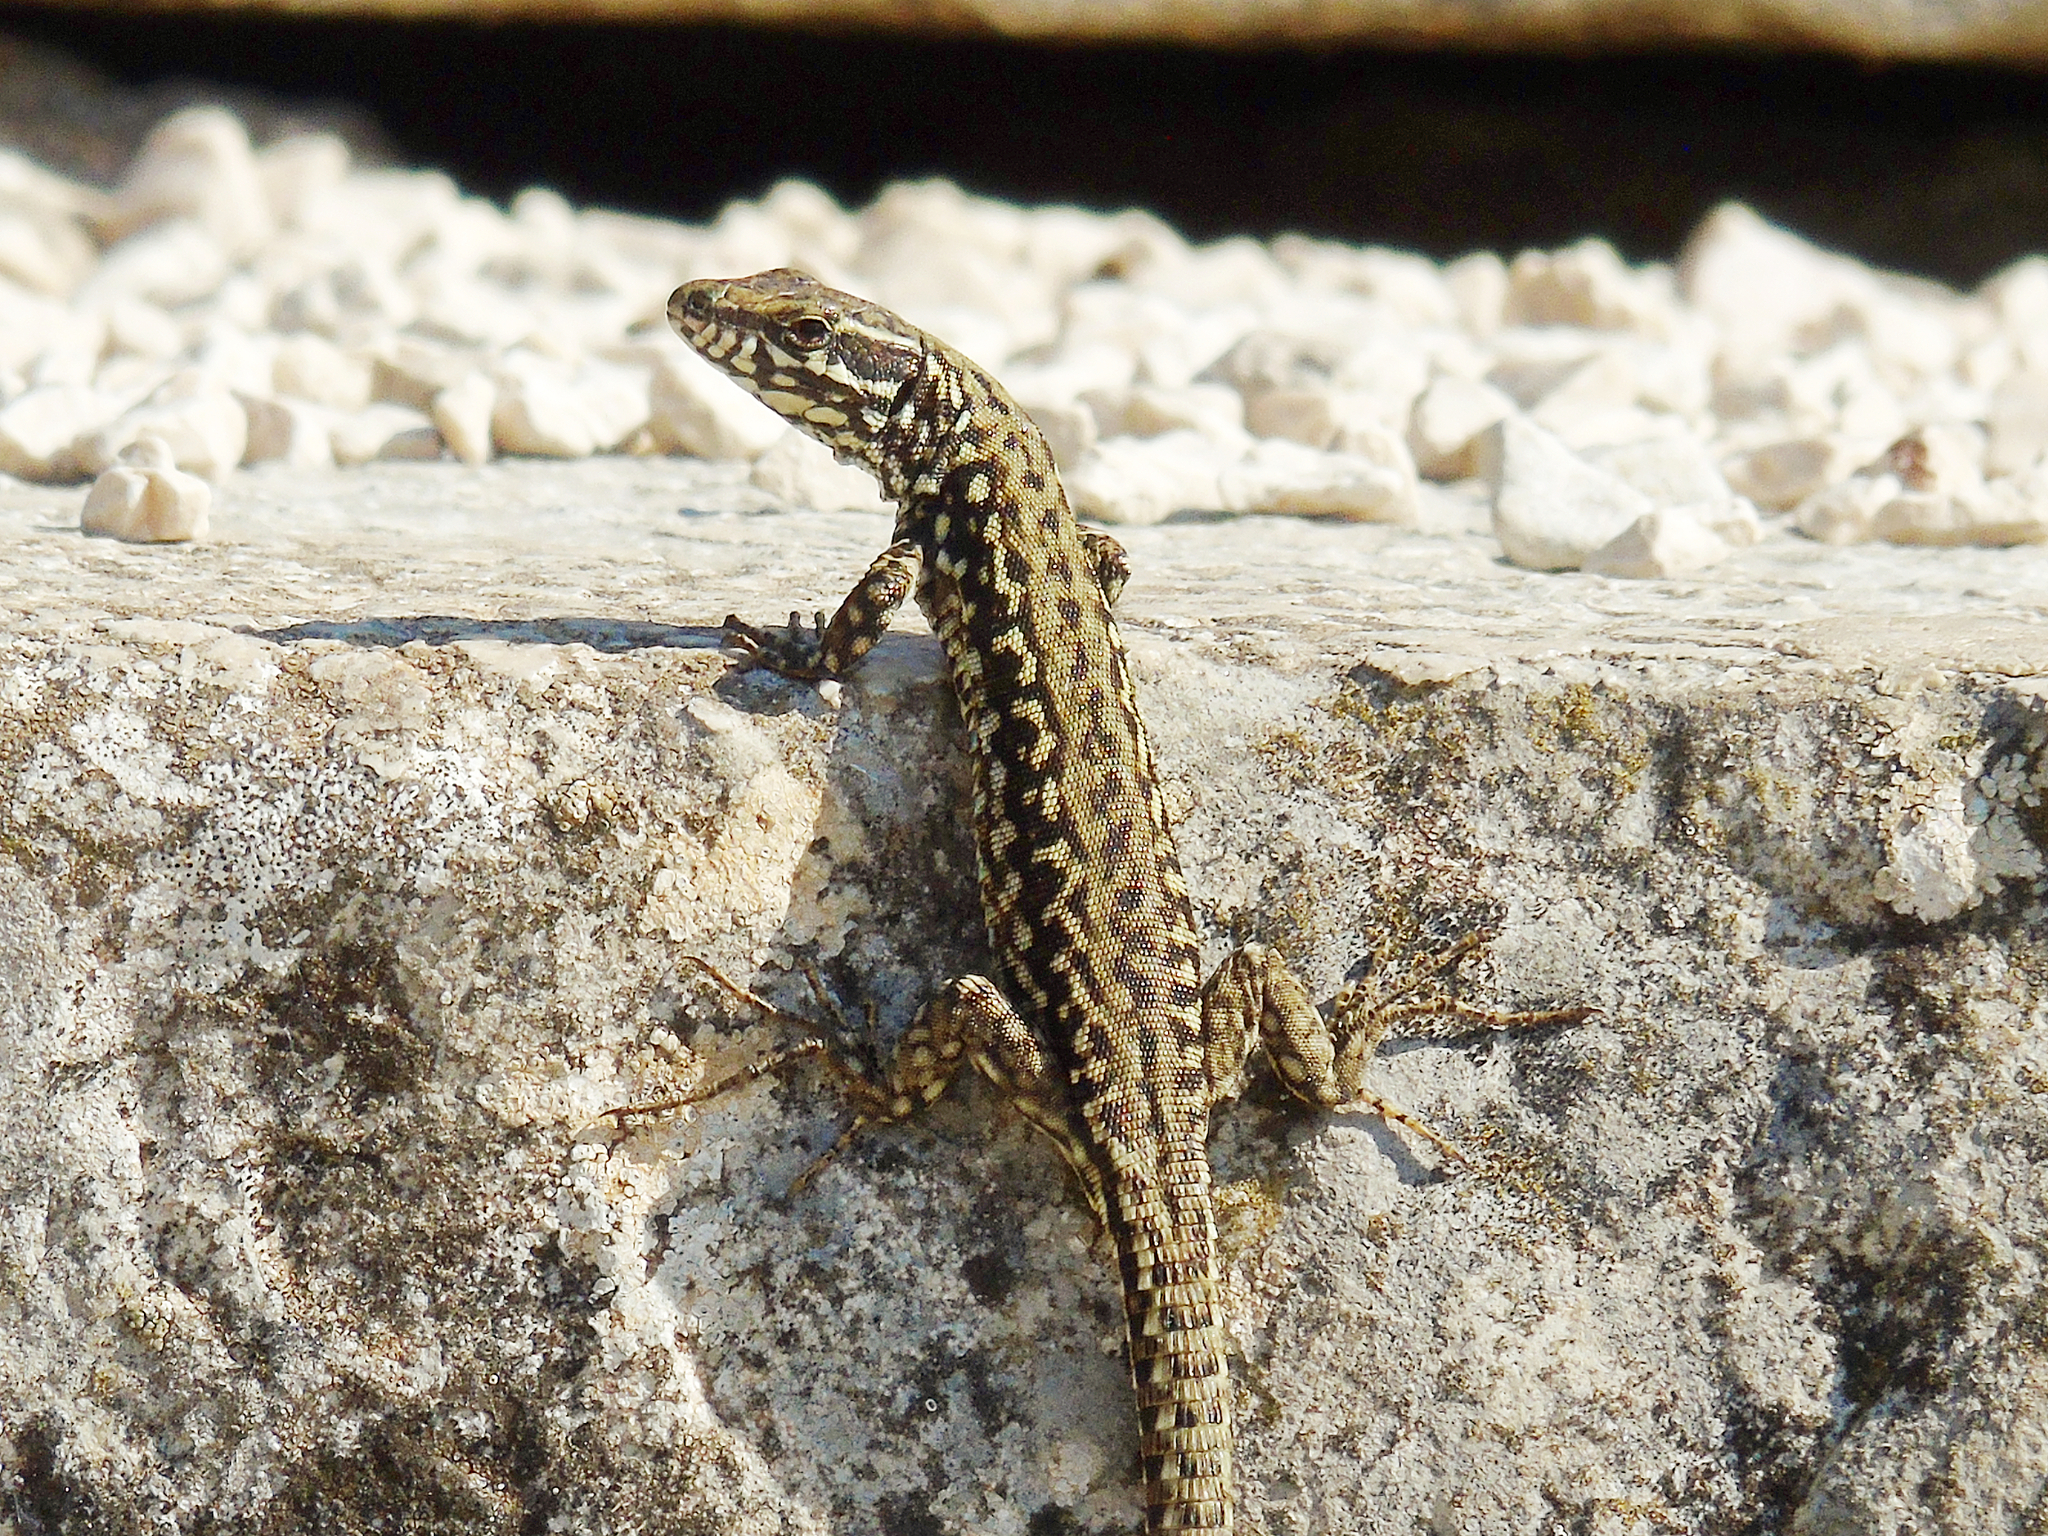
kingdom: Animalia
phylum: Chordata
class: Squamata
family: Lacertidae
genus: Podarcis
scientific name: Podarcis muralis
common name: Common wall lizard
